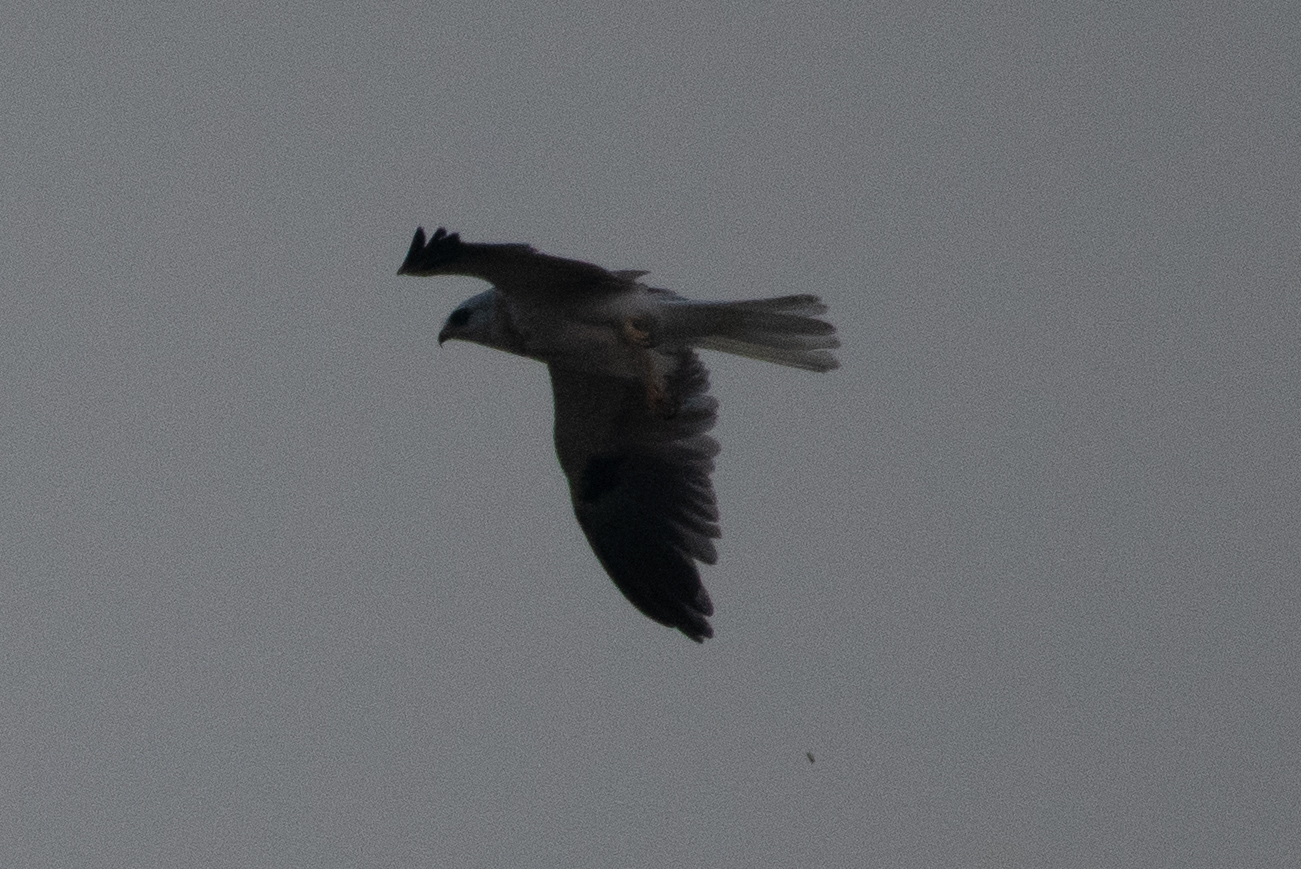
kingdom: Animalia
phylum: Chordata
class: Aves
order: Accipitriformes
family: Accipitridae
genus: Elanus
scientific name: Elanus leucurus
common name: White-tailed kite
